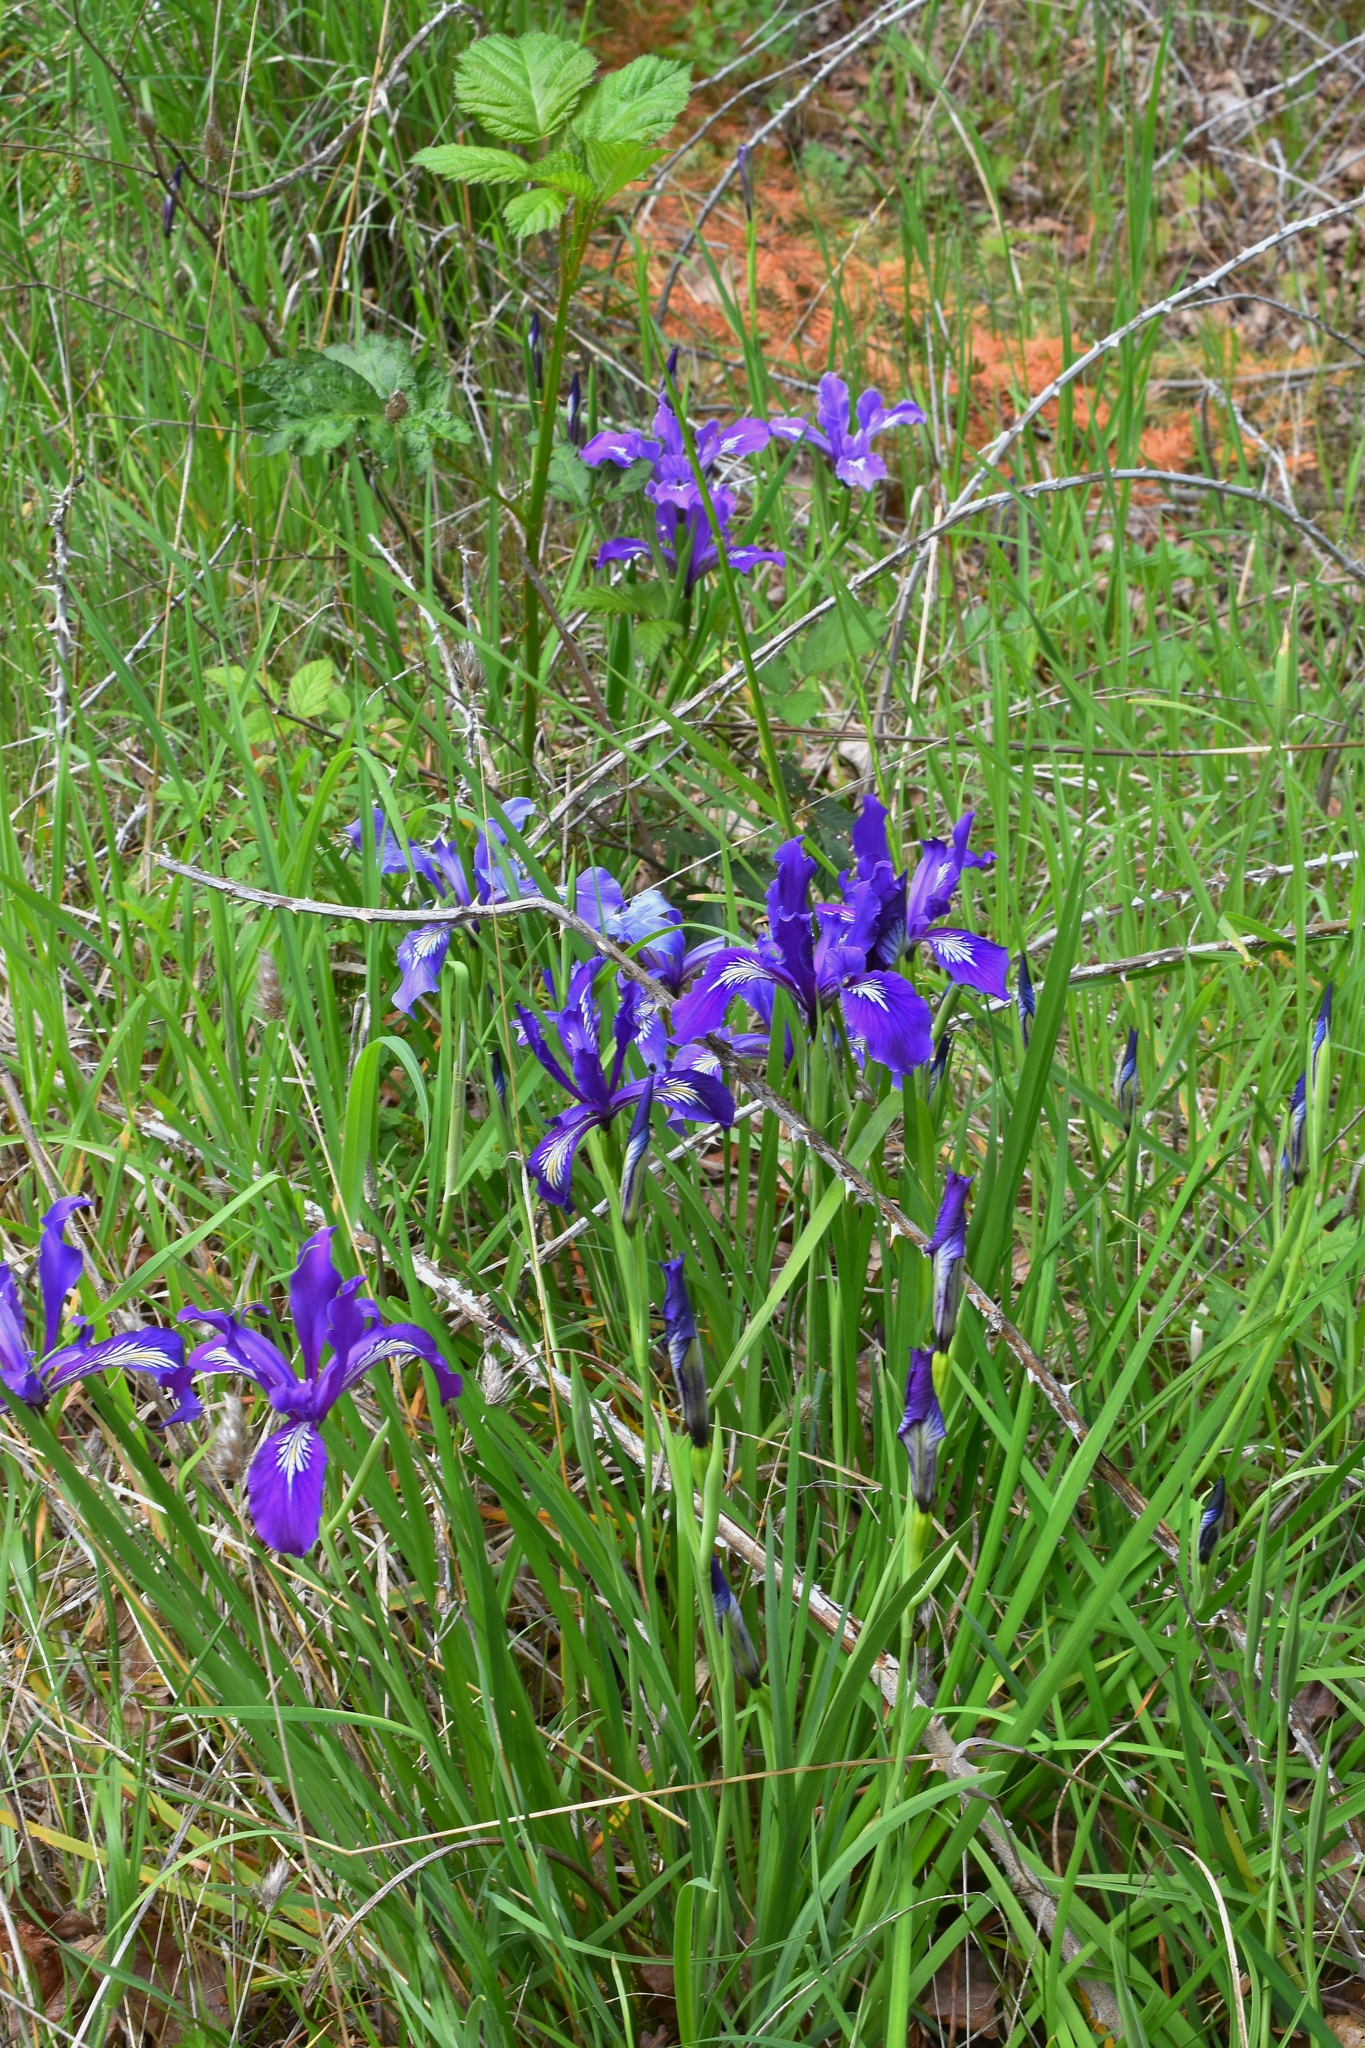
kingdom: Plantae
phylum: Tracheophyta
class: Liliopsida
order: Asparagales
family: Iridaceae
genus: Iris
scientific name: Iris tenax
